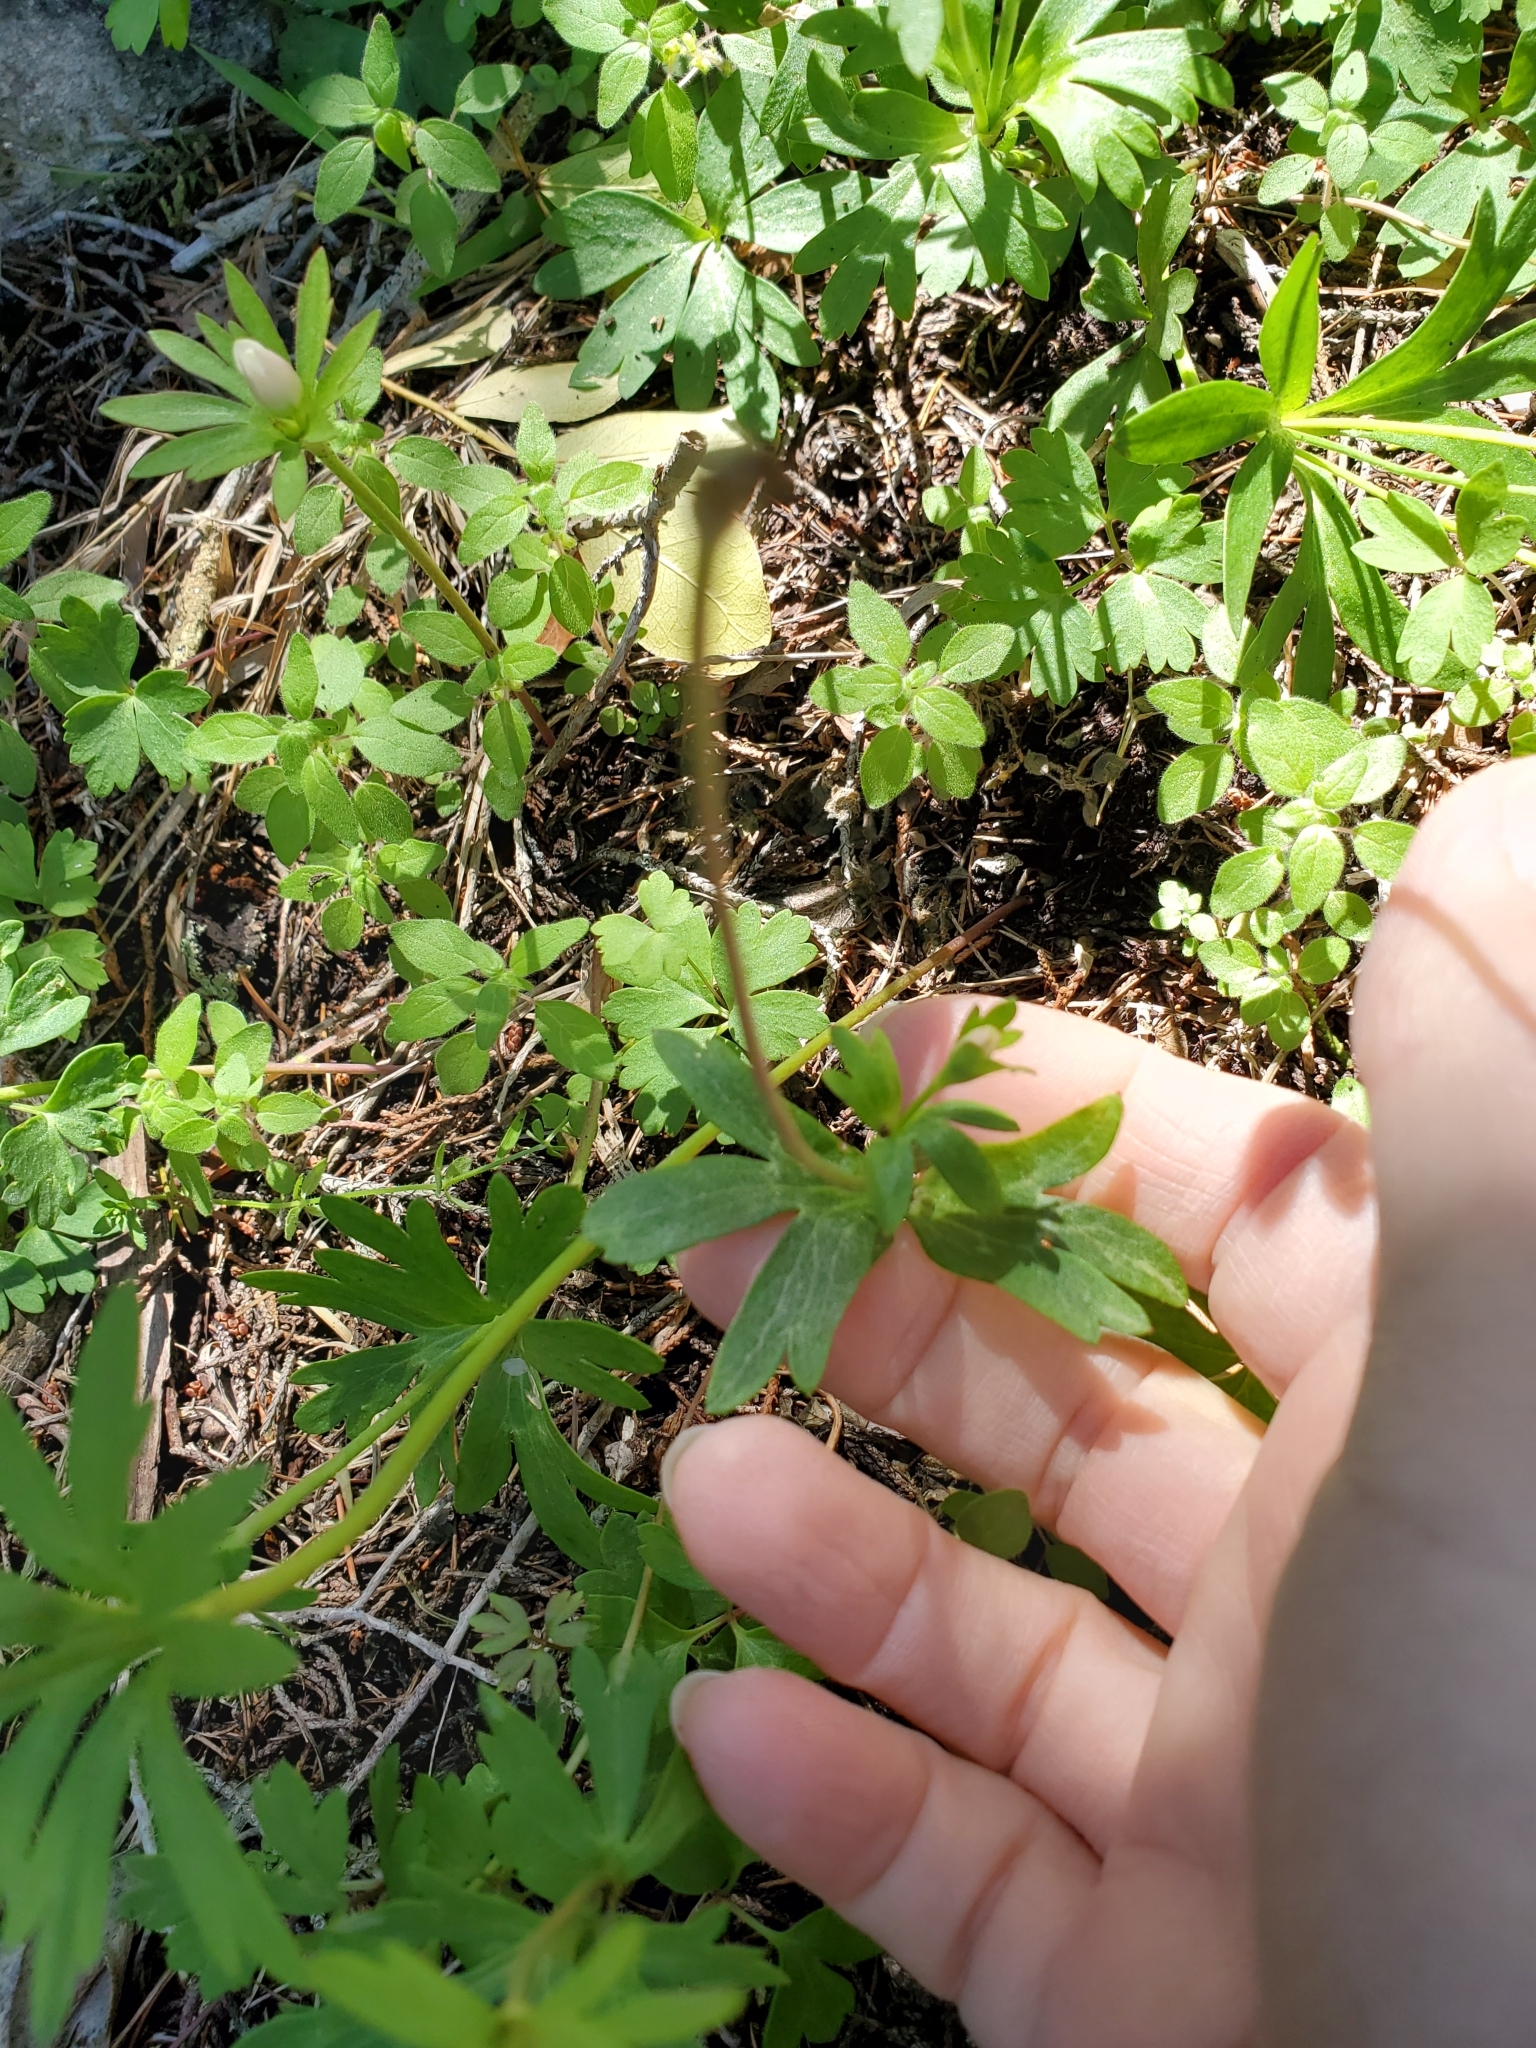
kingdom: Plantae
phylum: Tracheophyta
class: Magnoliopsida
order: Ranunculales
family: Ranunculaceae
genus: Anemone
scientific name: Anemone edwardsiana
